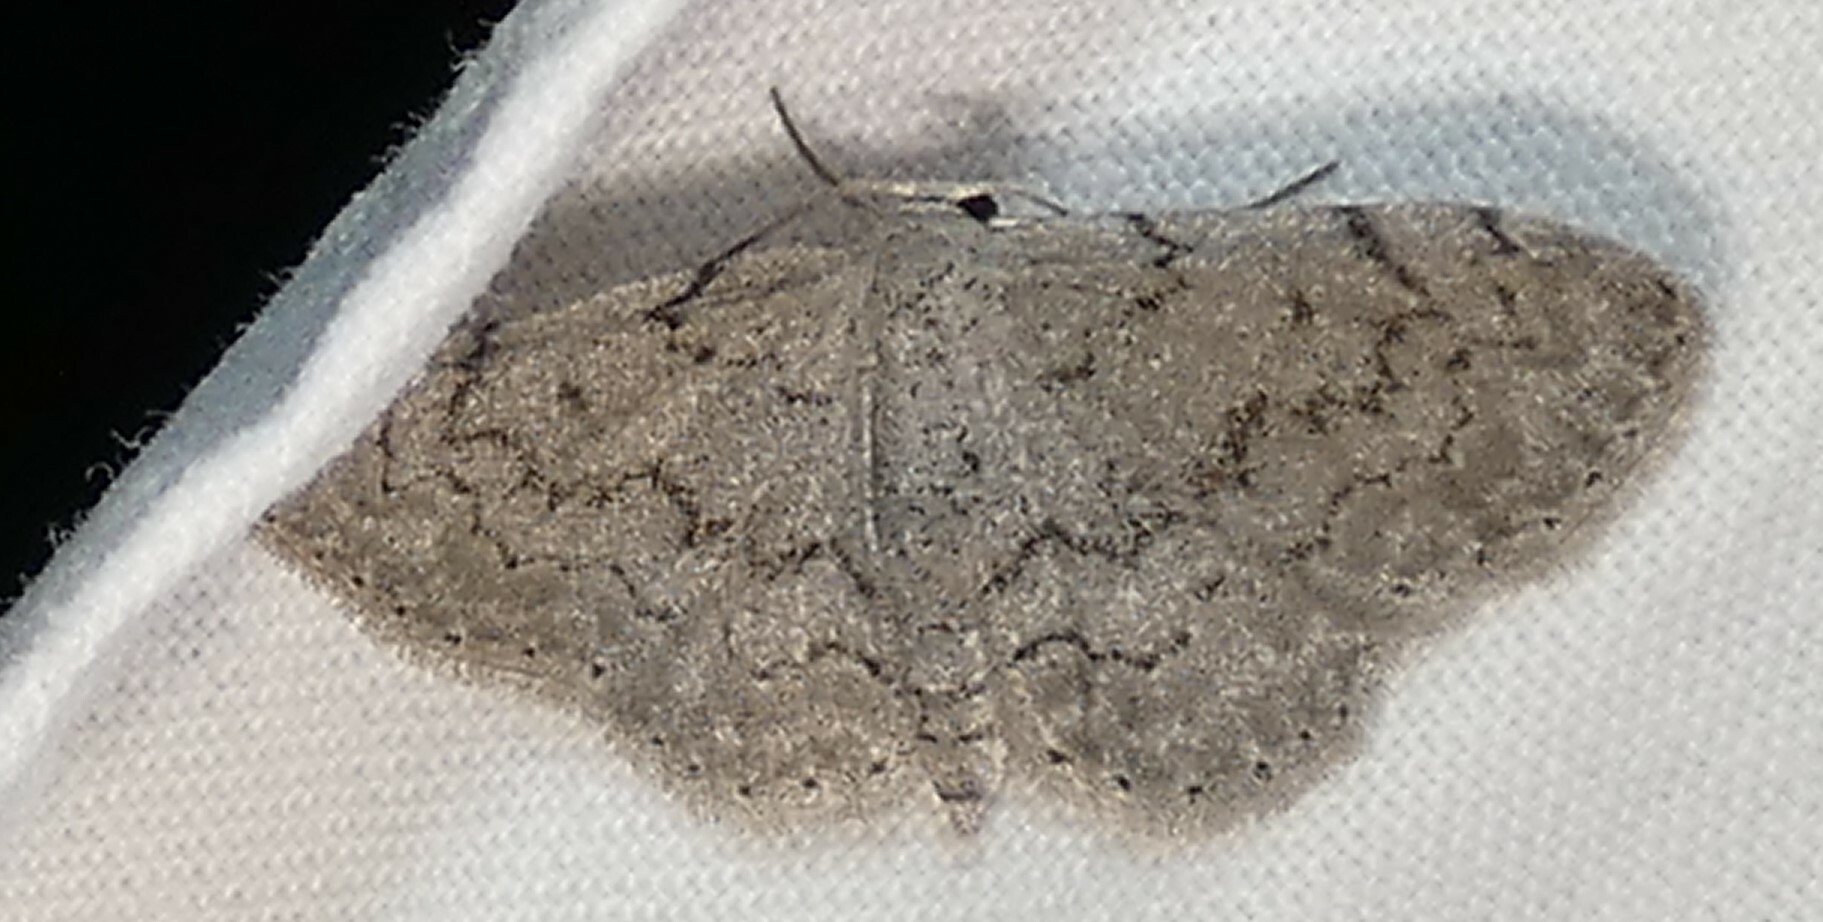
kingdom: Animalia
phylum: Arthropoda
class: Insecta
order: Lepidoptera
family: Geometridae
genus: Idaea
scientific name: Idaea violacearia
